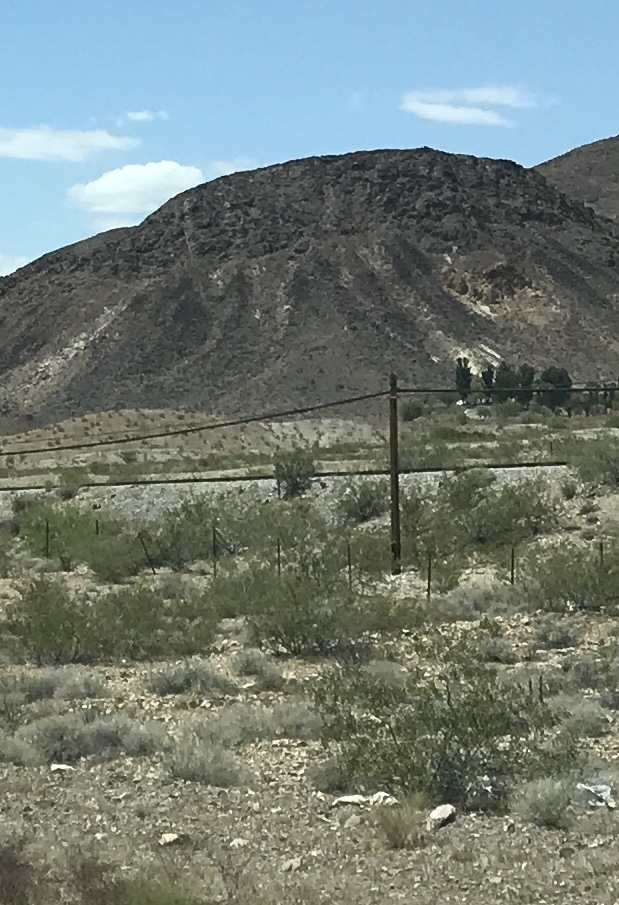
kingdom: Plantae
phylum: Tracheophyta
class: Magnoliopsida
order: Zygophyllales
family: Zygophyllaceae
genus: Larrea
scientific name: Larrea tridentata
